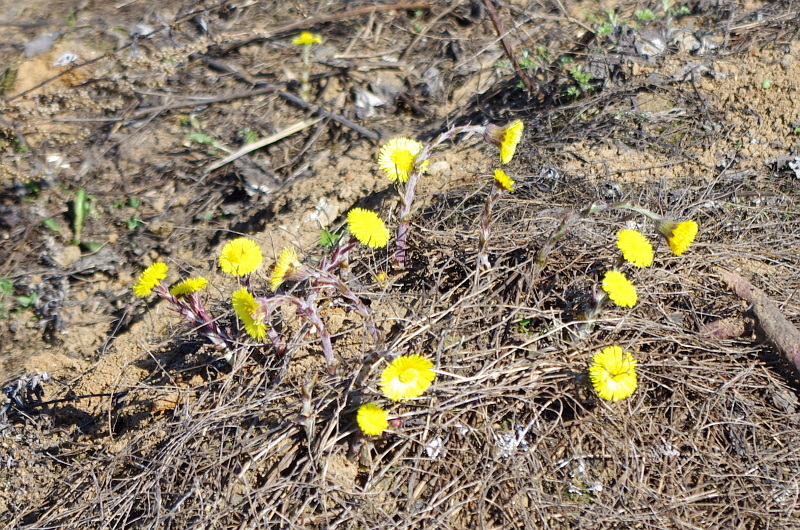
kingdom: Plantae
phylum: Tracheophyta
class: Magnoliopsida
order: Asterales
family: Asteraceae
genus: Tussilago
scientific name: Tussilago farfara
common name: Coltsfoot
